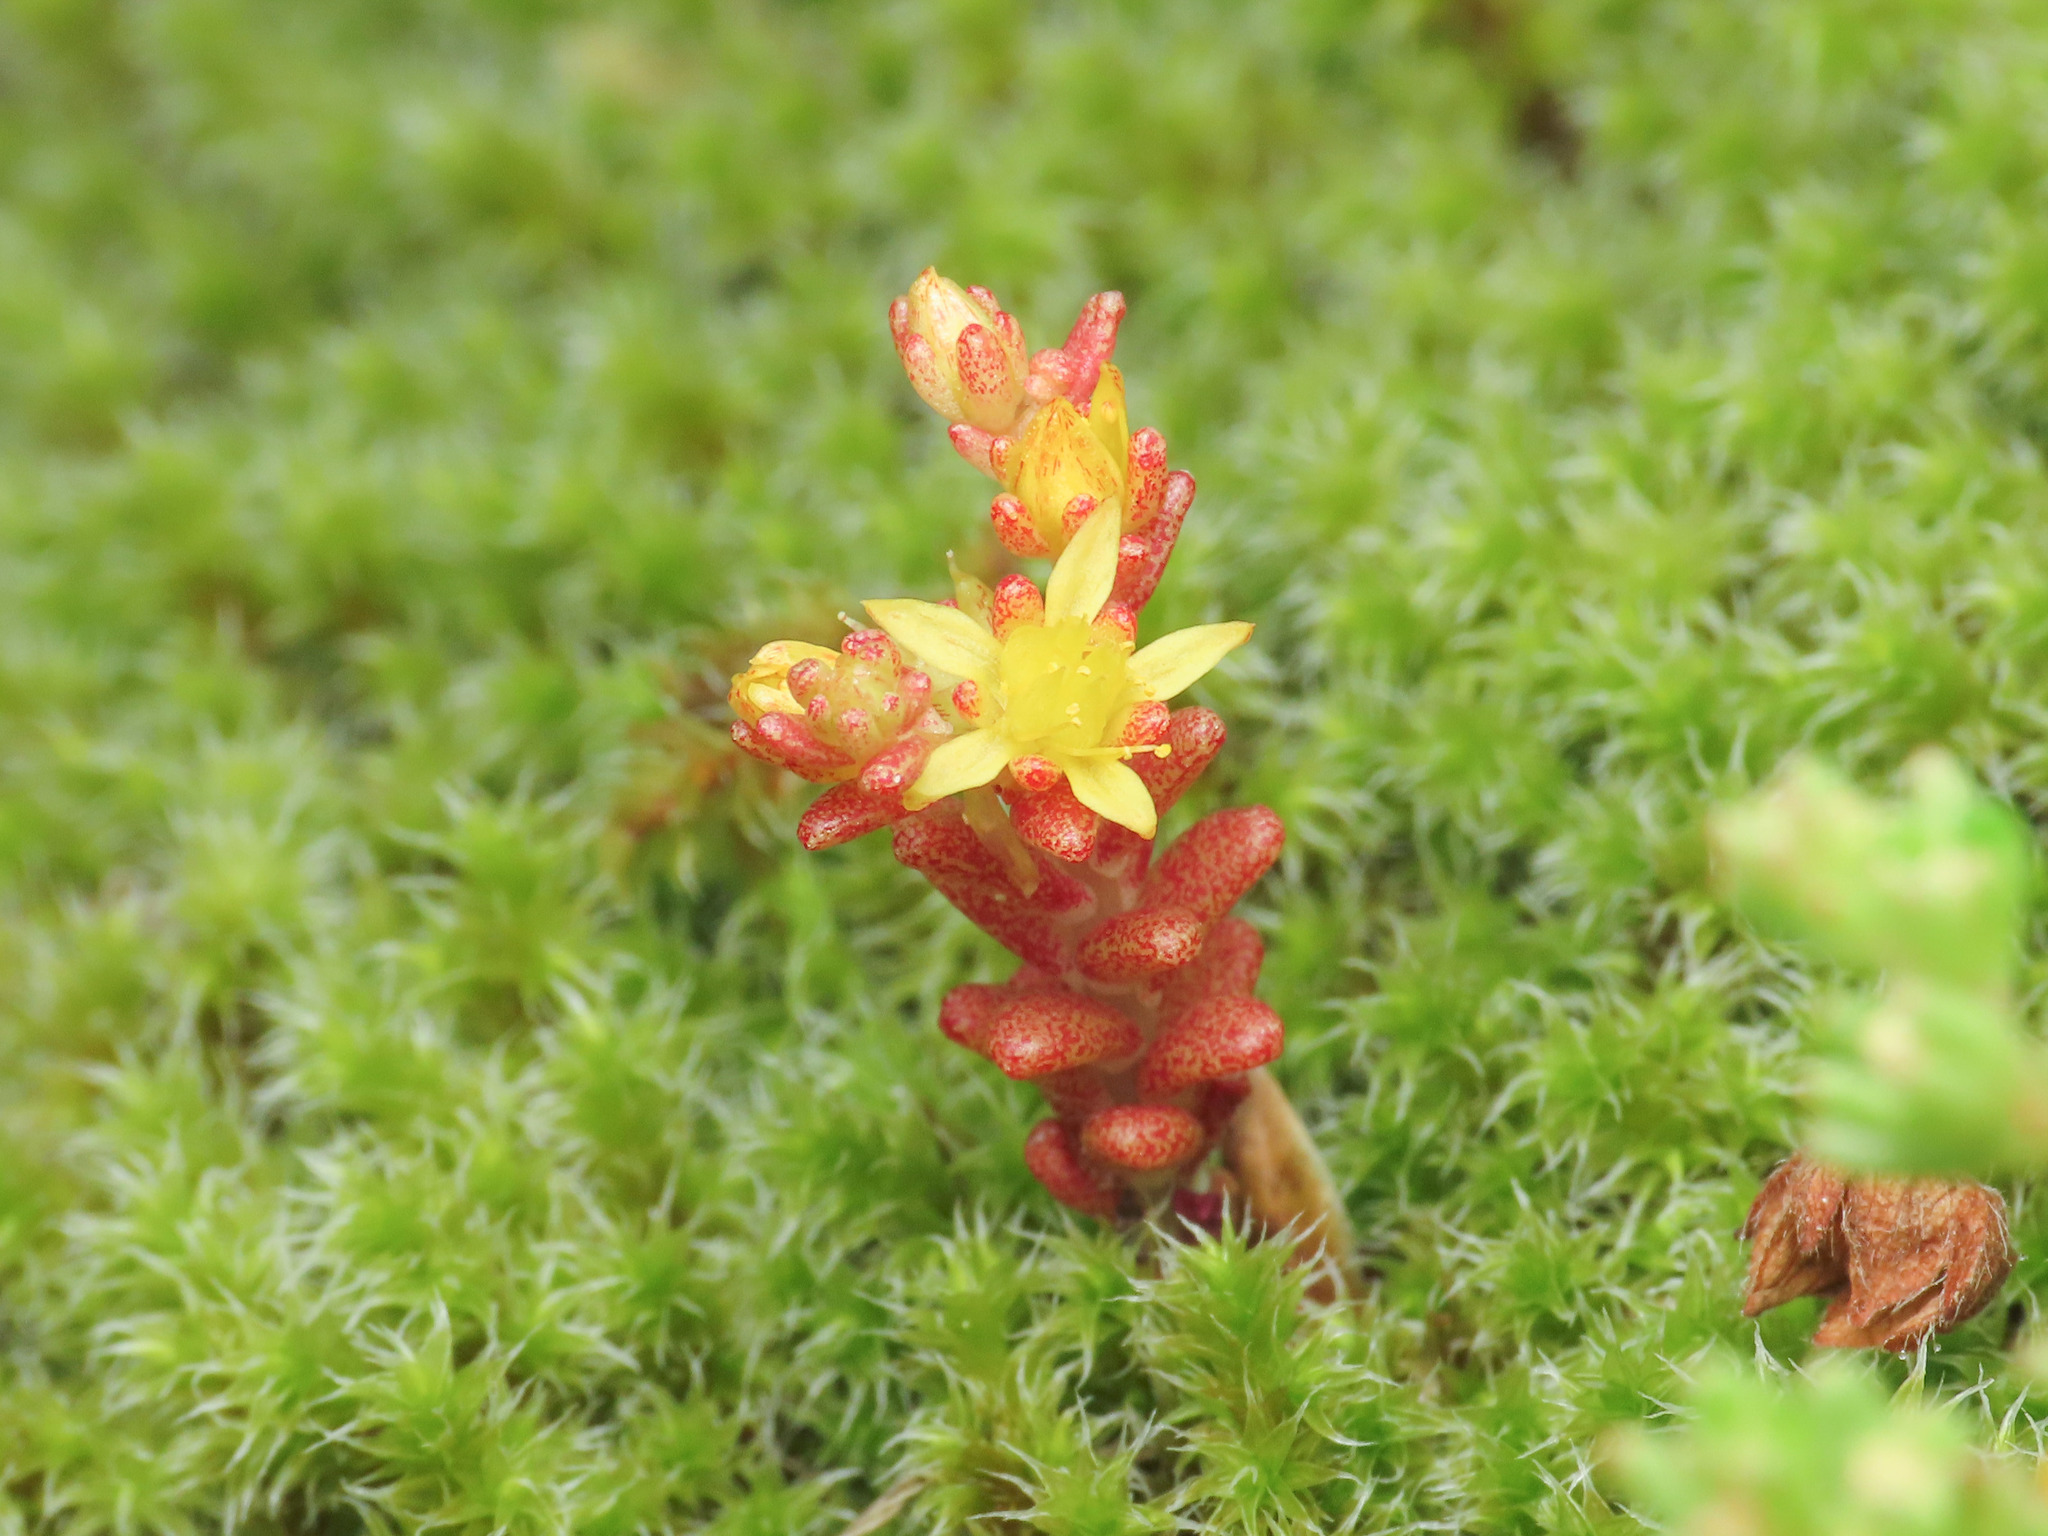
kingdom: Plantae
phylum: Tracheophyta
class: Magnoliopsida
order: Saxifragales
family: Crassulaceae
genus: Sedum
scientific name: Sedum annuum
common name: Annual stonecrop
